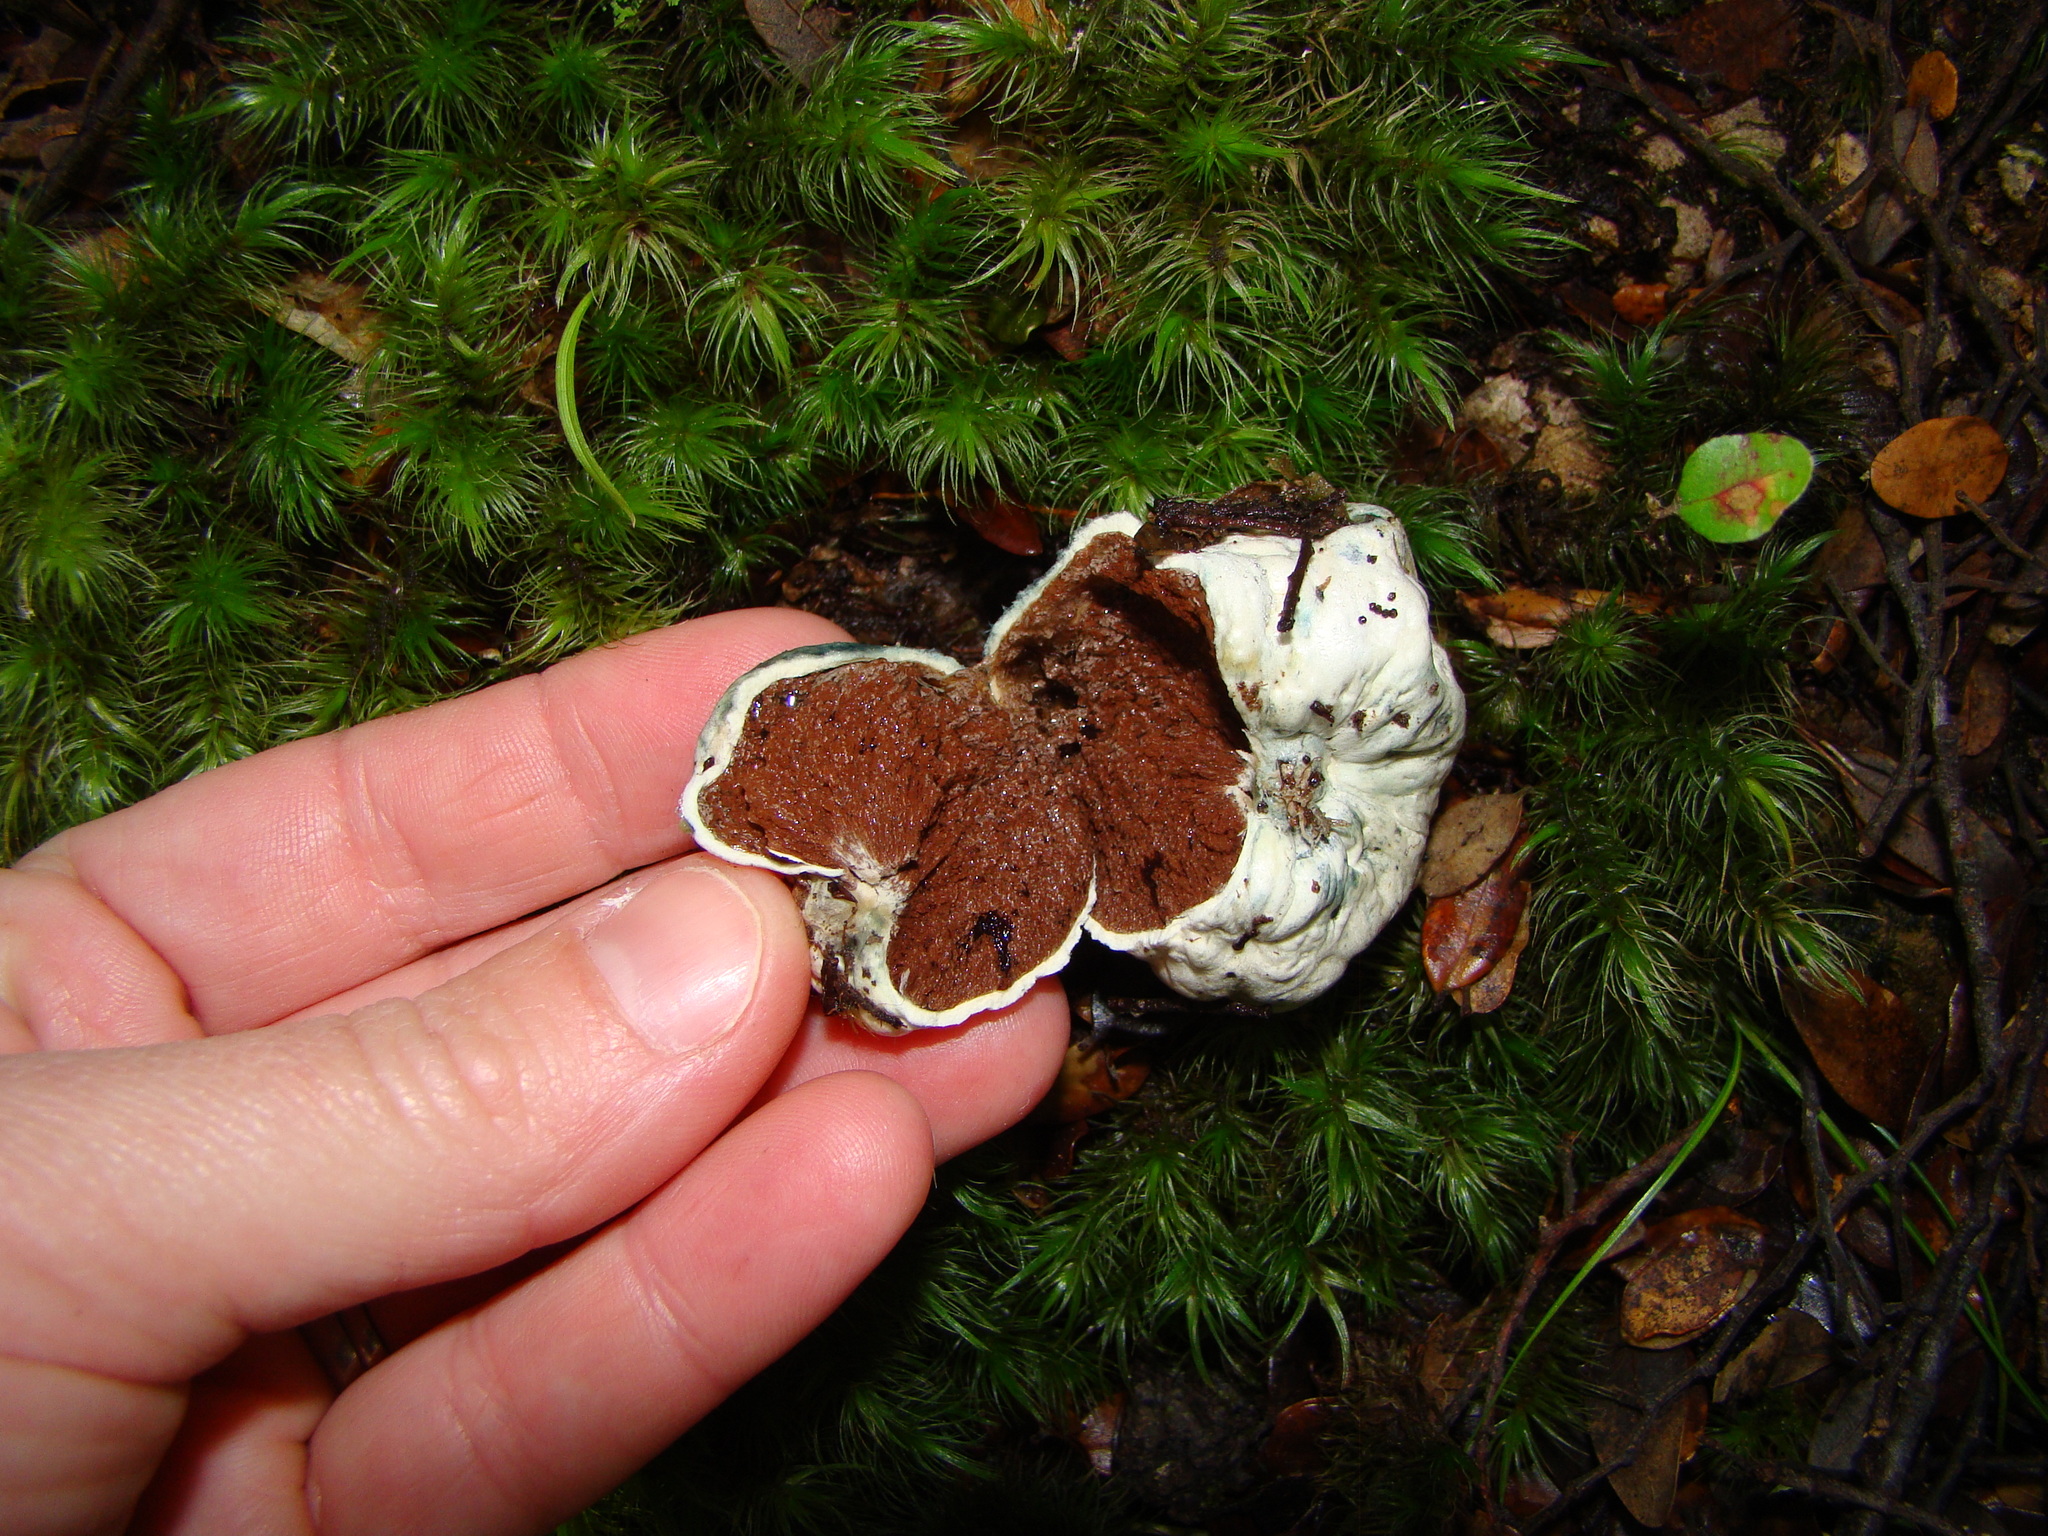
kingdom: Fungi
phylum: Basidiomycota
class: Agaricomycetes
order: Boletales
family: Boletaceae
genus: Leccinum
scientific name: Leccinum pachyderme
